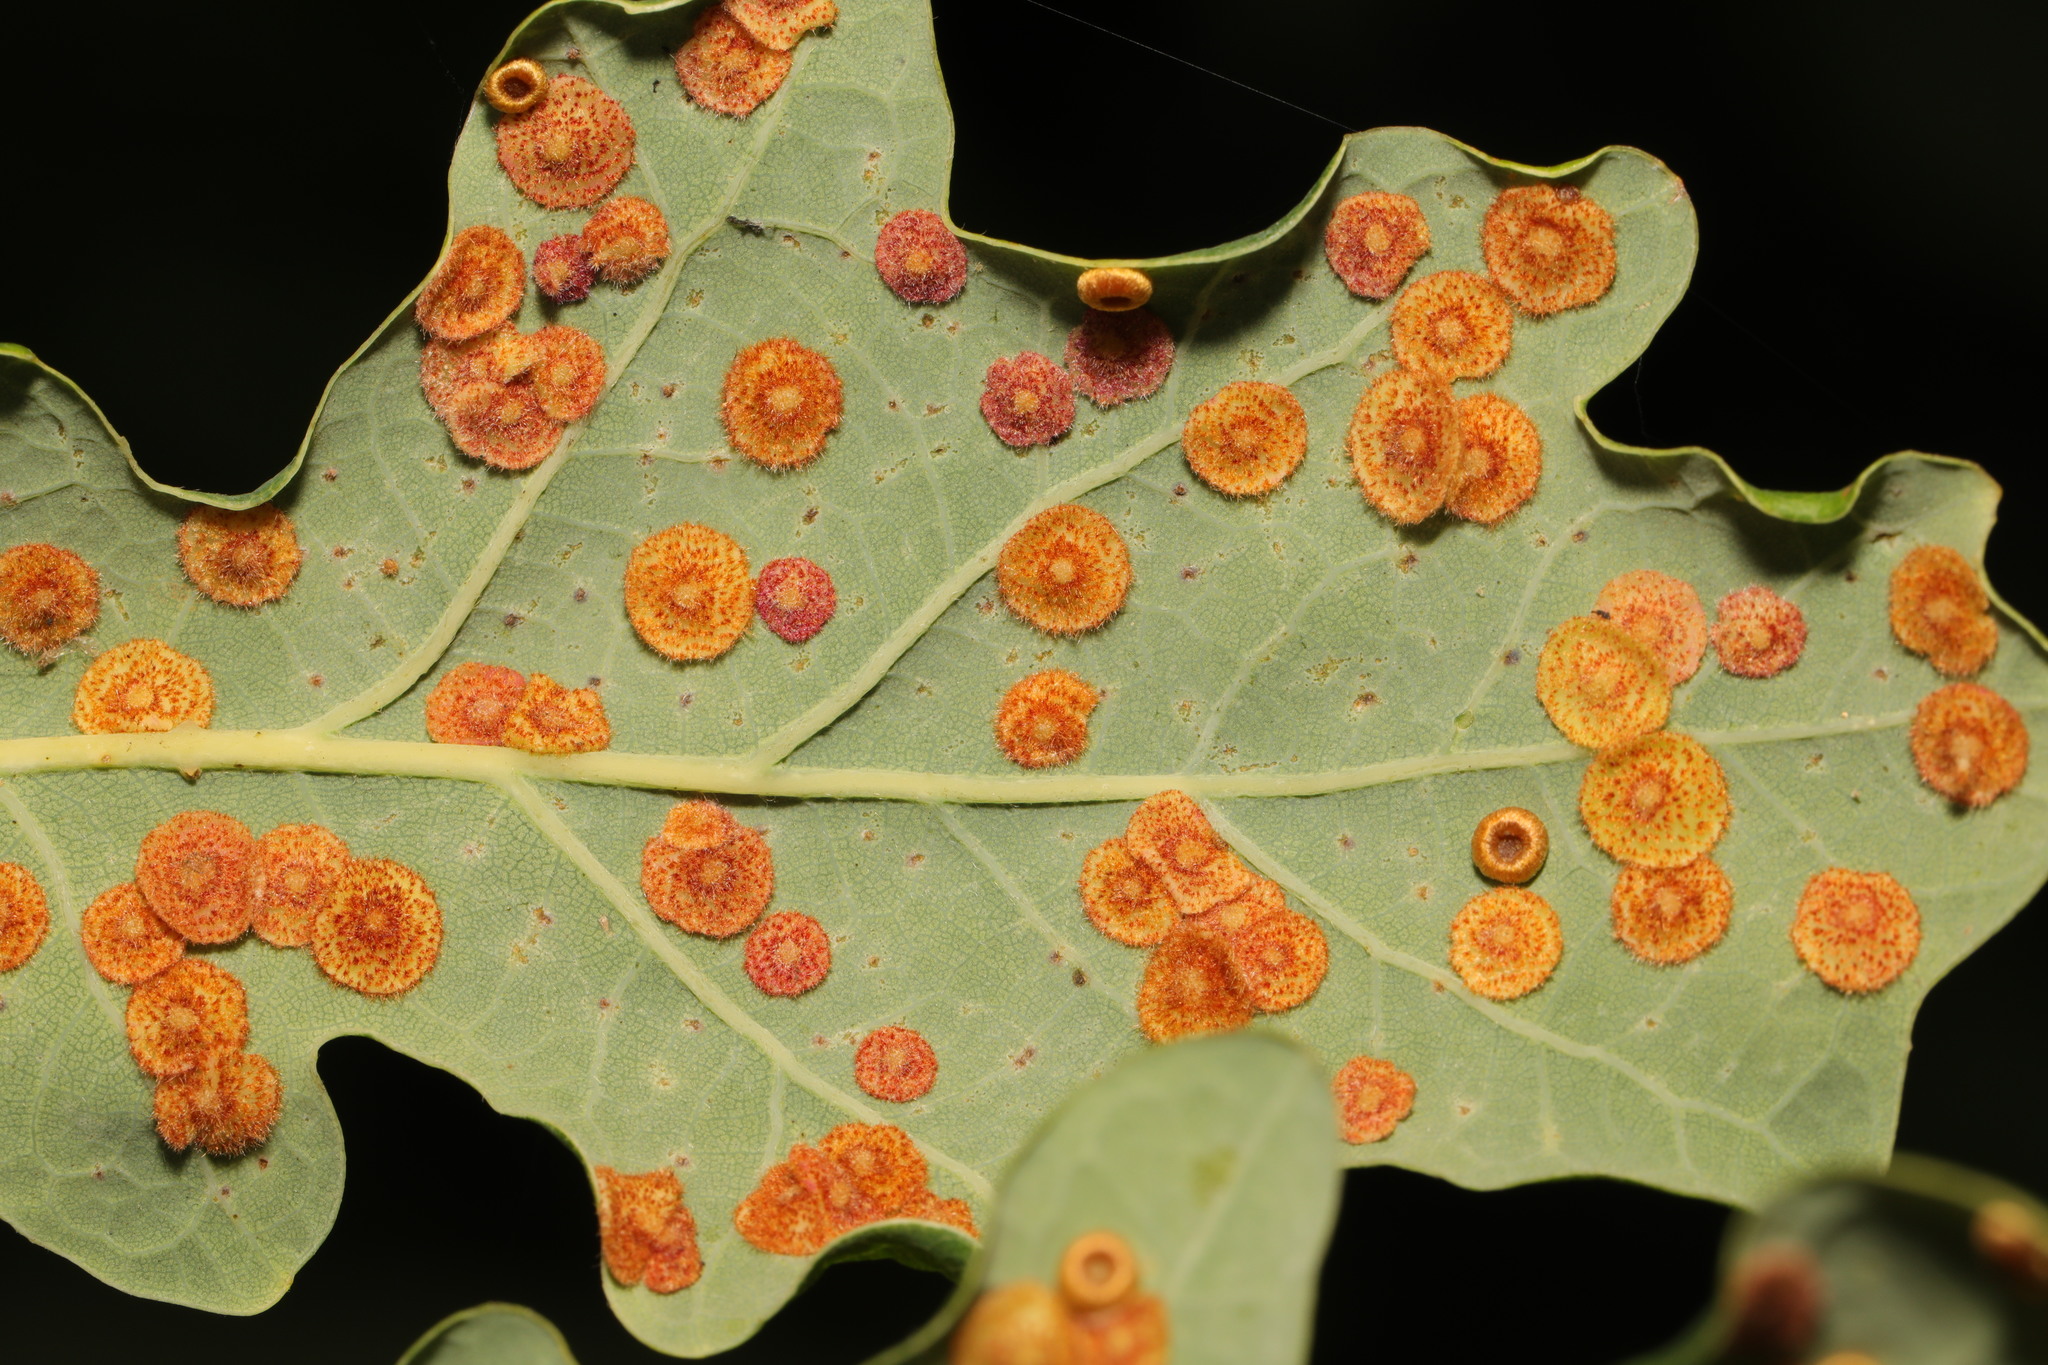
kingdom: Animalia
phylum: Arthropoda
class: Insecta
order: Hymenoptera
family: Cynipidae
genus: Neuroterus
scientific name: Neuroterus quercusbaccarum
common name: Common spangle gall
